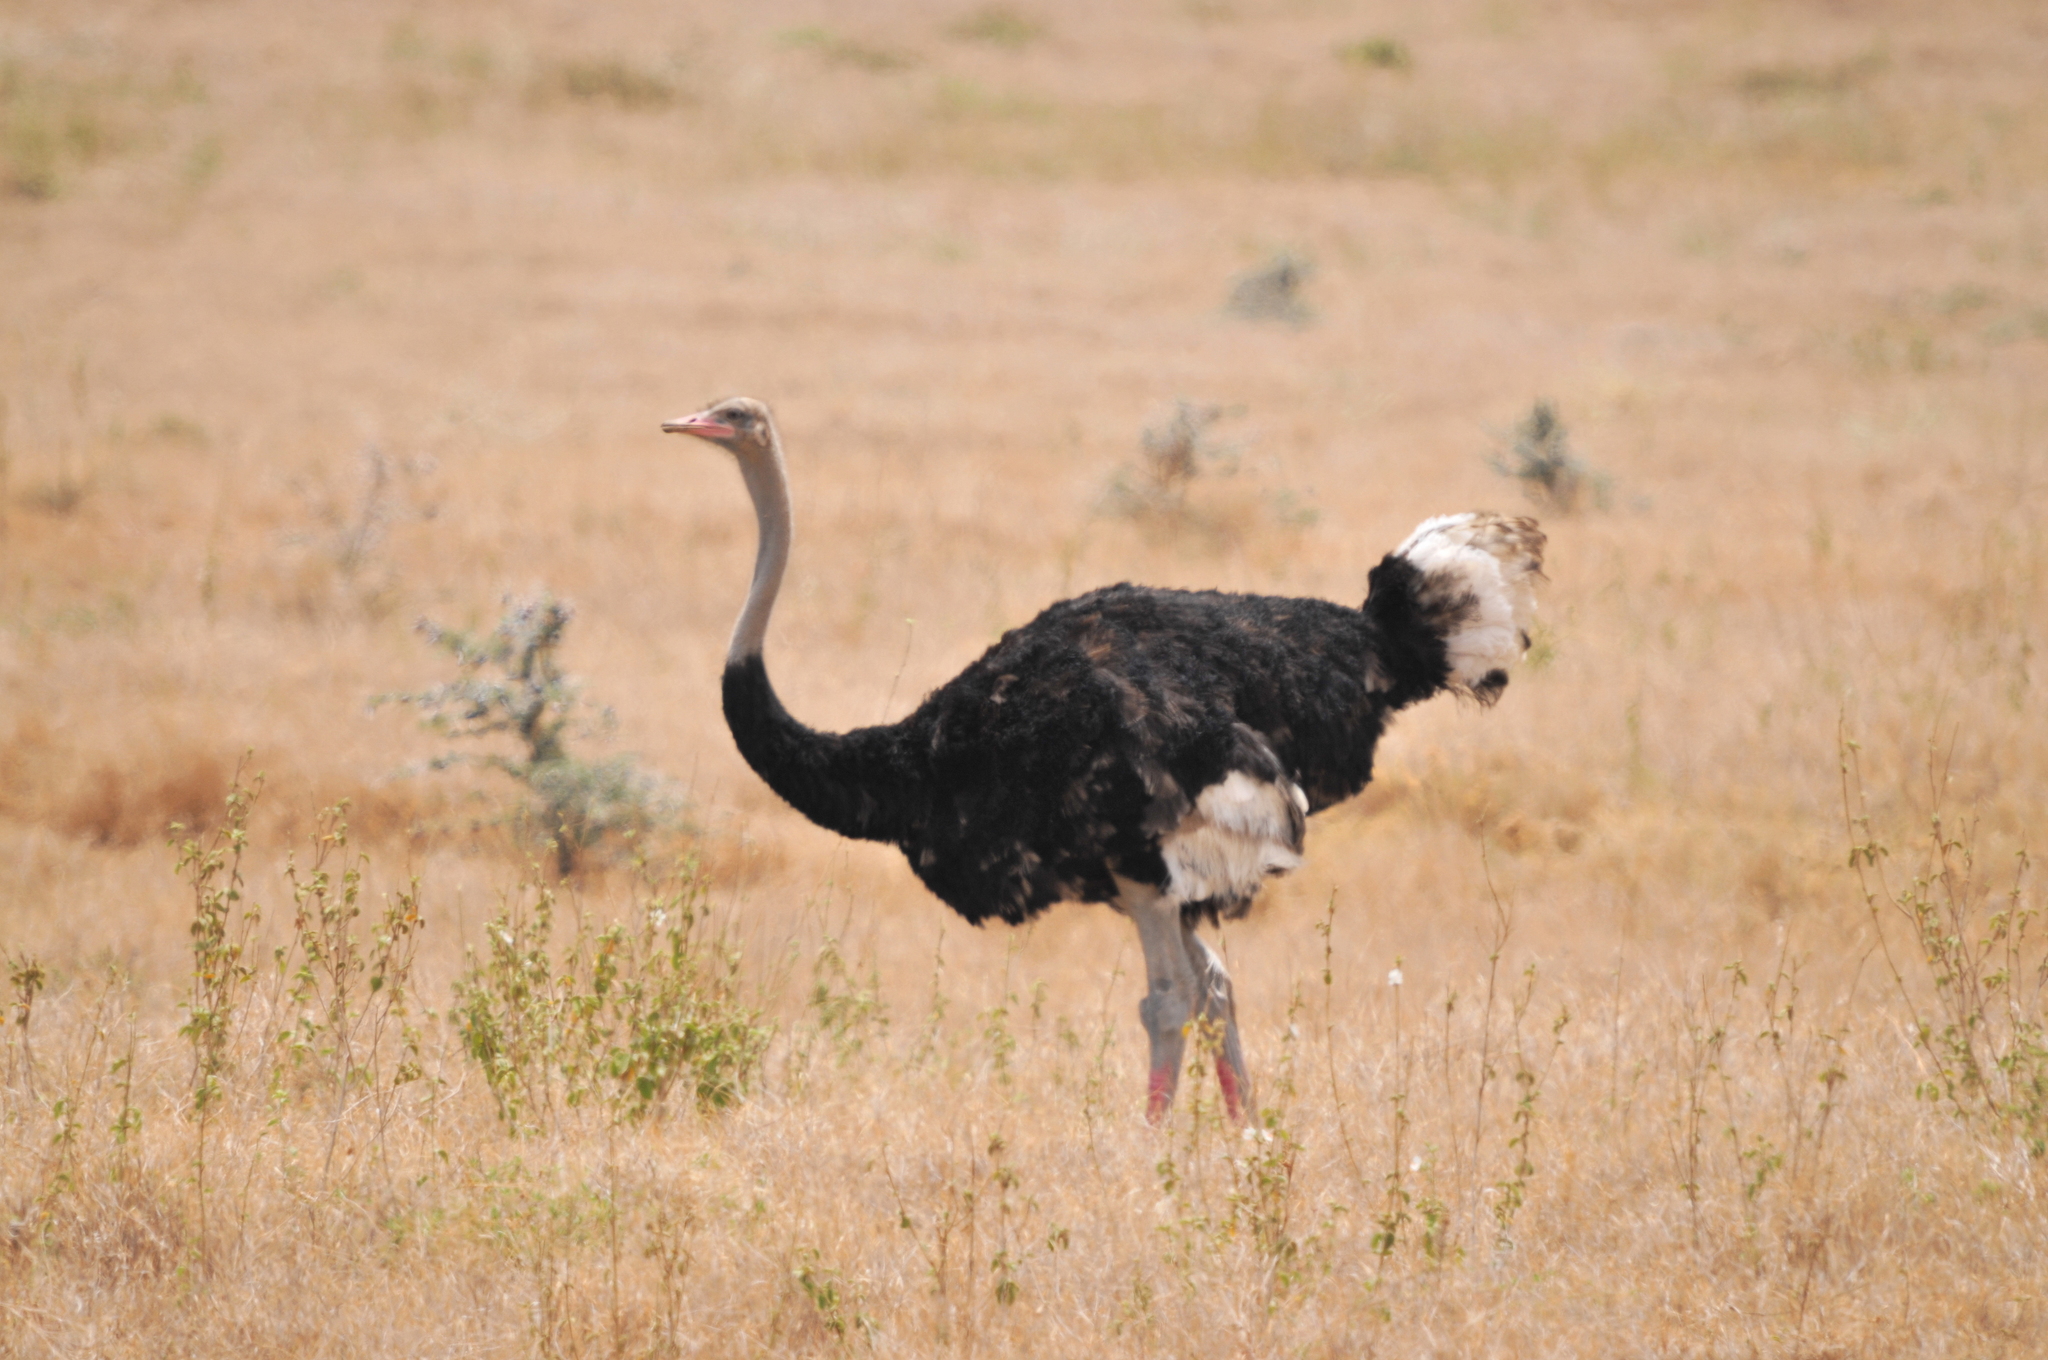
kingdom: Animalia
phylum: Chordata
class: Aves
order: Struthioniformes
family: Struthionidae
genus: Struthio
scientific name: Struthio molybdophanes
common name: Somali ostrich
